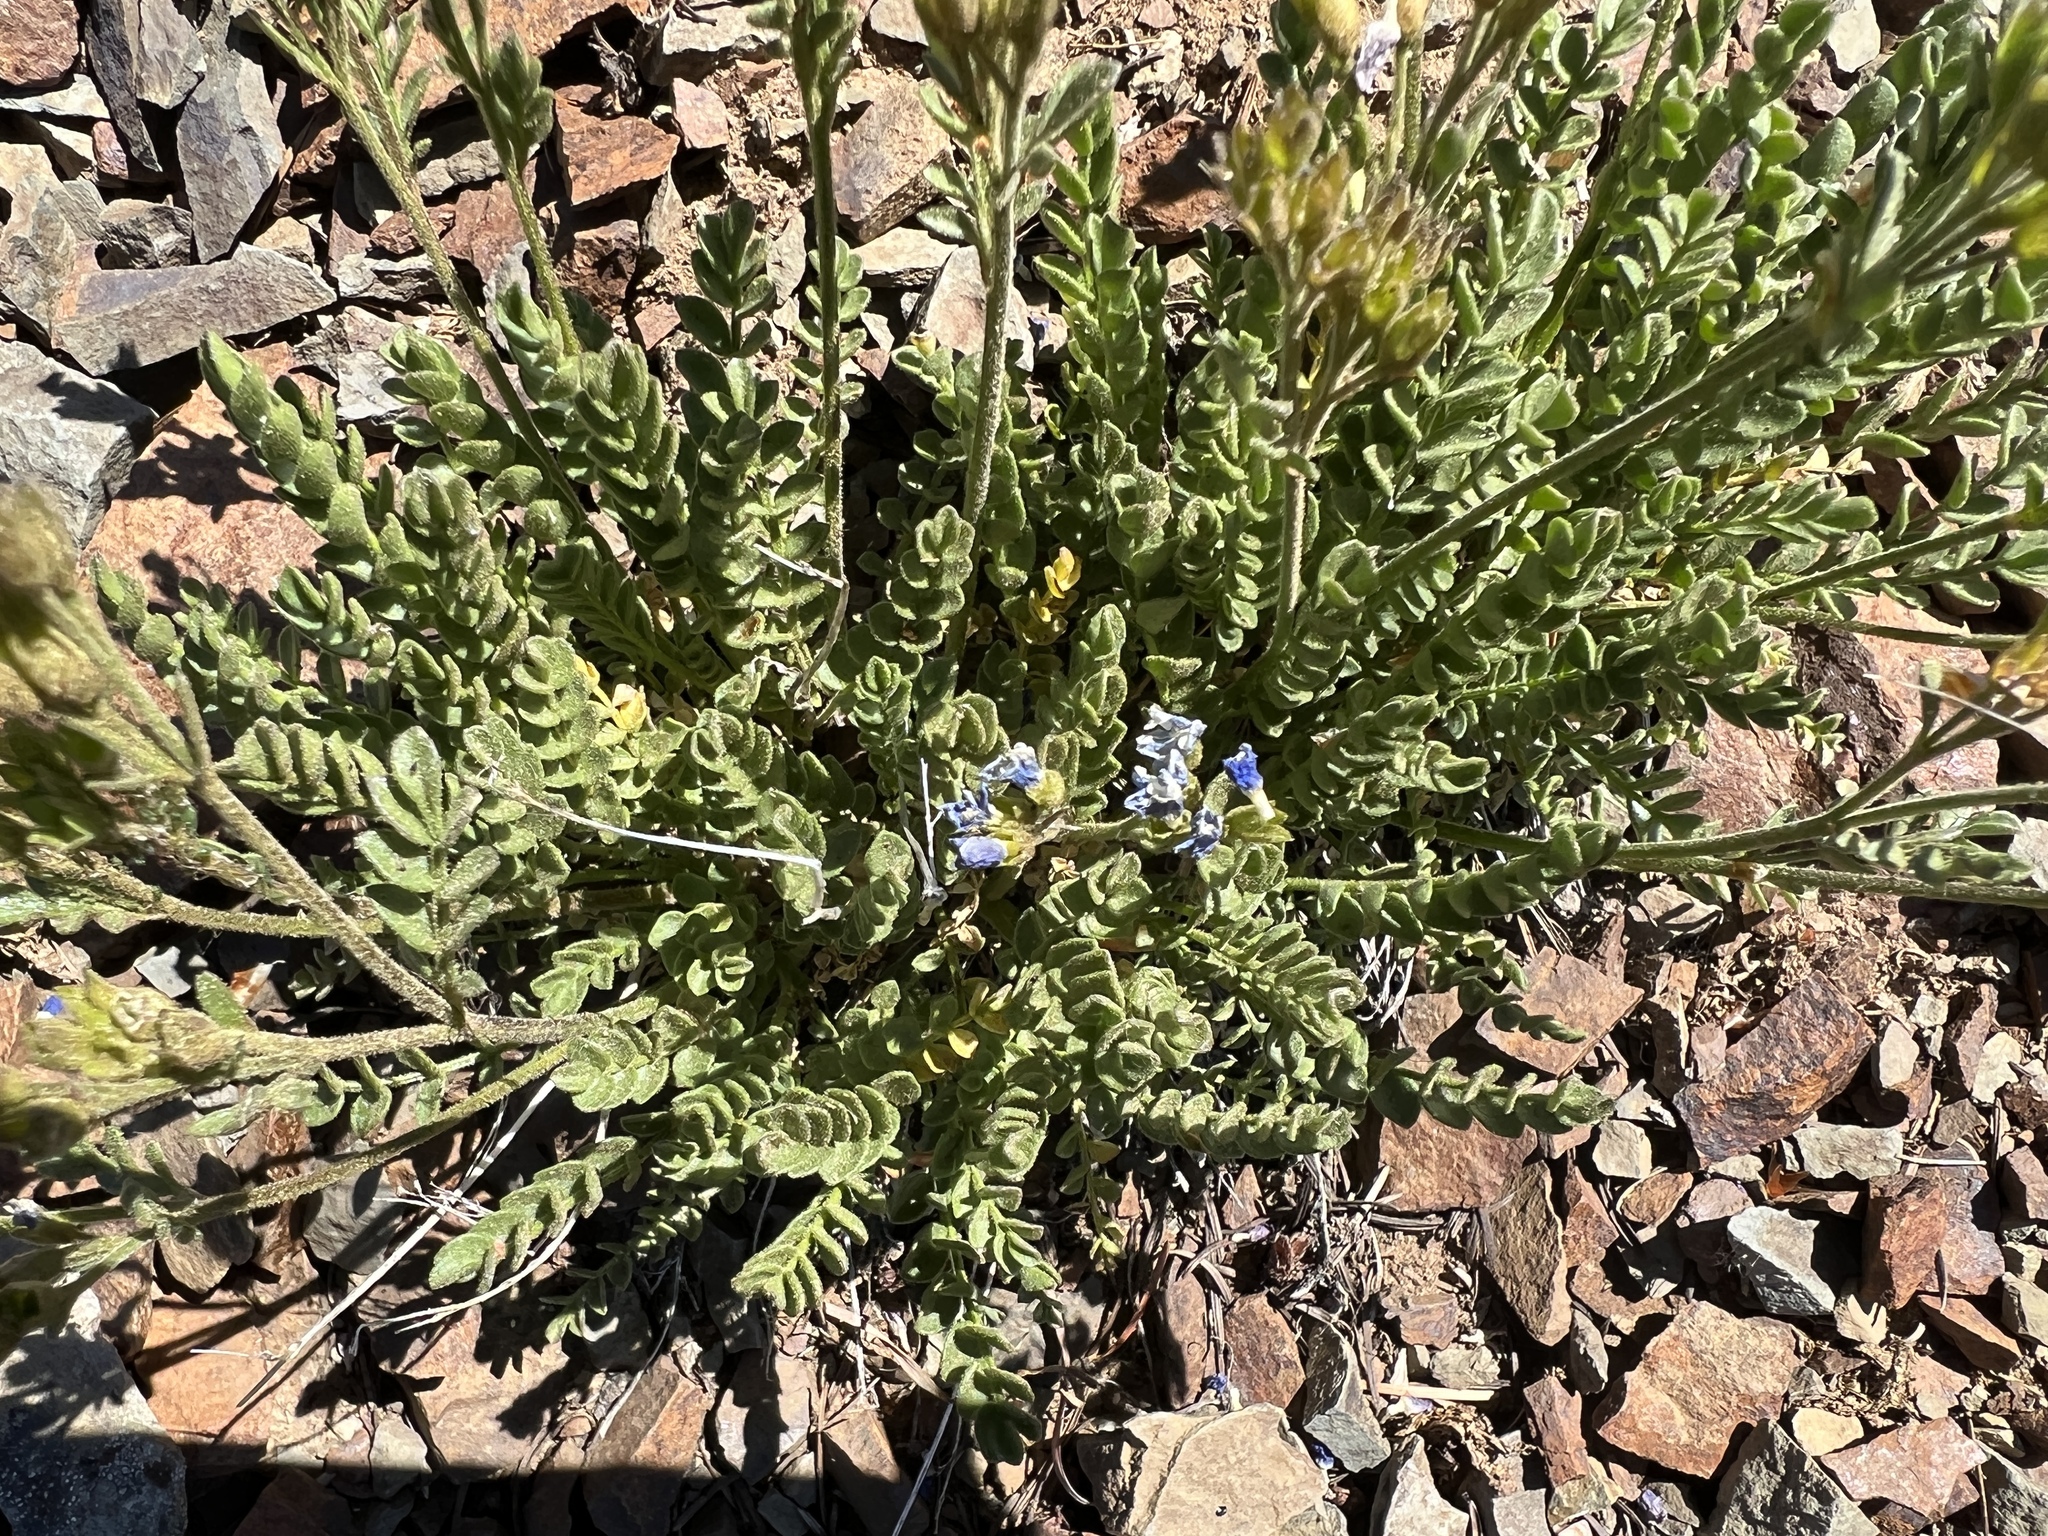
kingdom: Plantae
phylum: Tracheophyta
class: Magnoliopsida
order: Ericales
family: Polemoniaceae
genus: Polemonium
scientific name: Polemonium pulcherrimum
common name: Short jacob's-ladder
